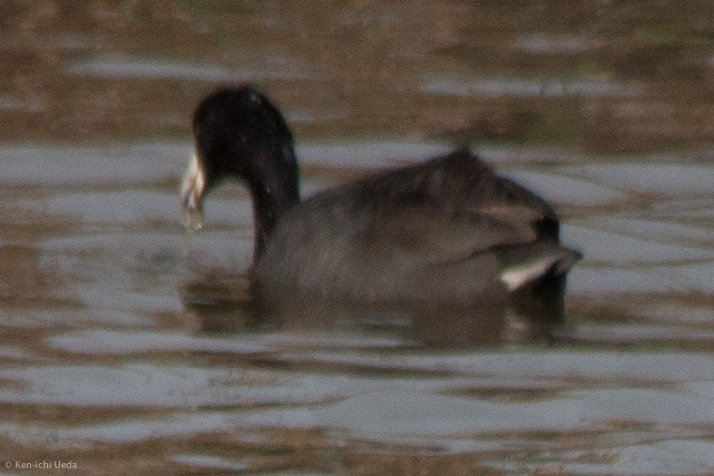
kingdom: Animalia
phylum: Chordata
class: Aves
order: Gruiformes
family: Rallidae
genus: Fulica
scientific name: Fulica americana
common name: American coot
